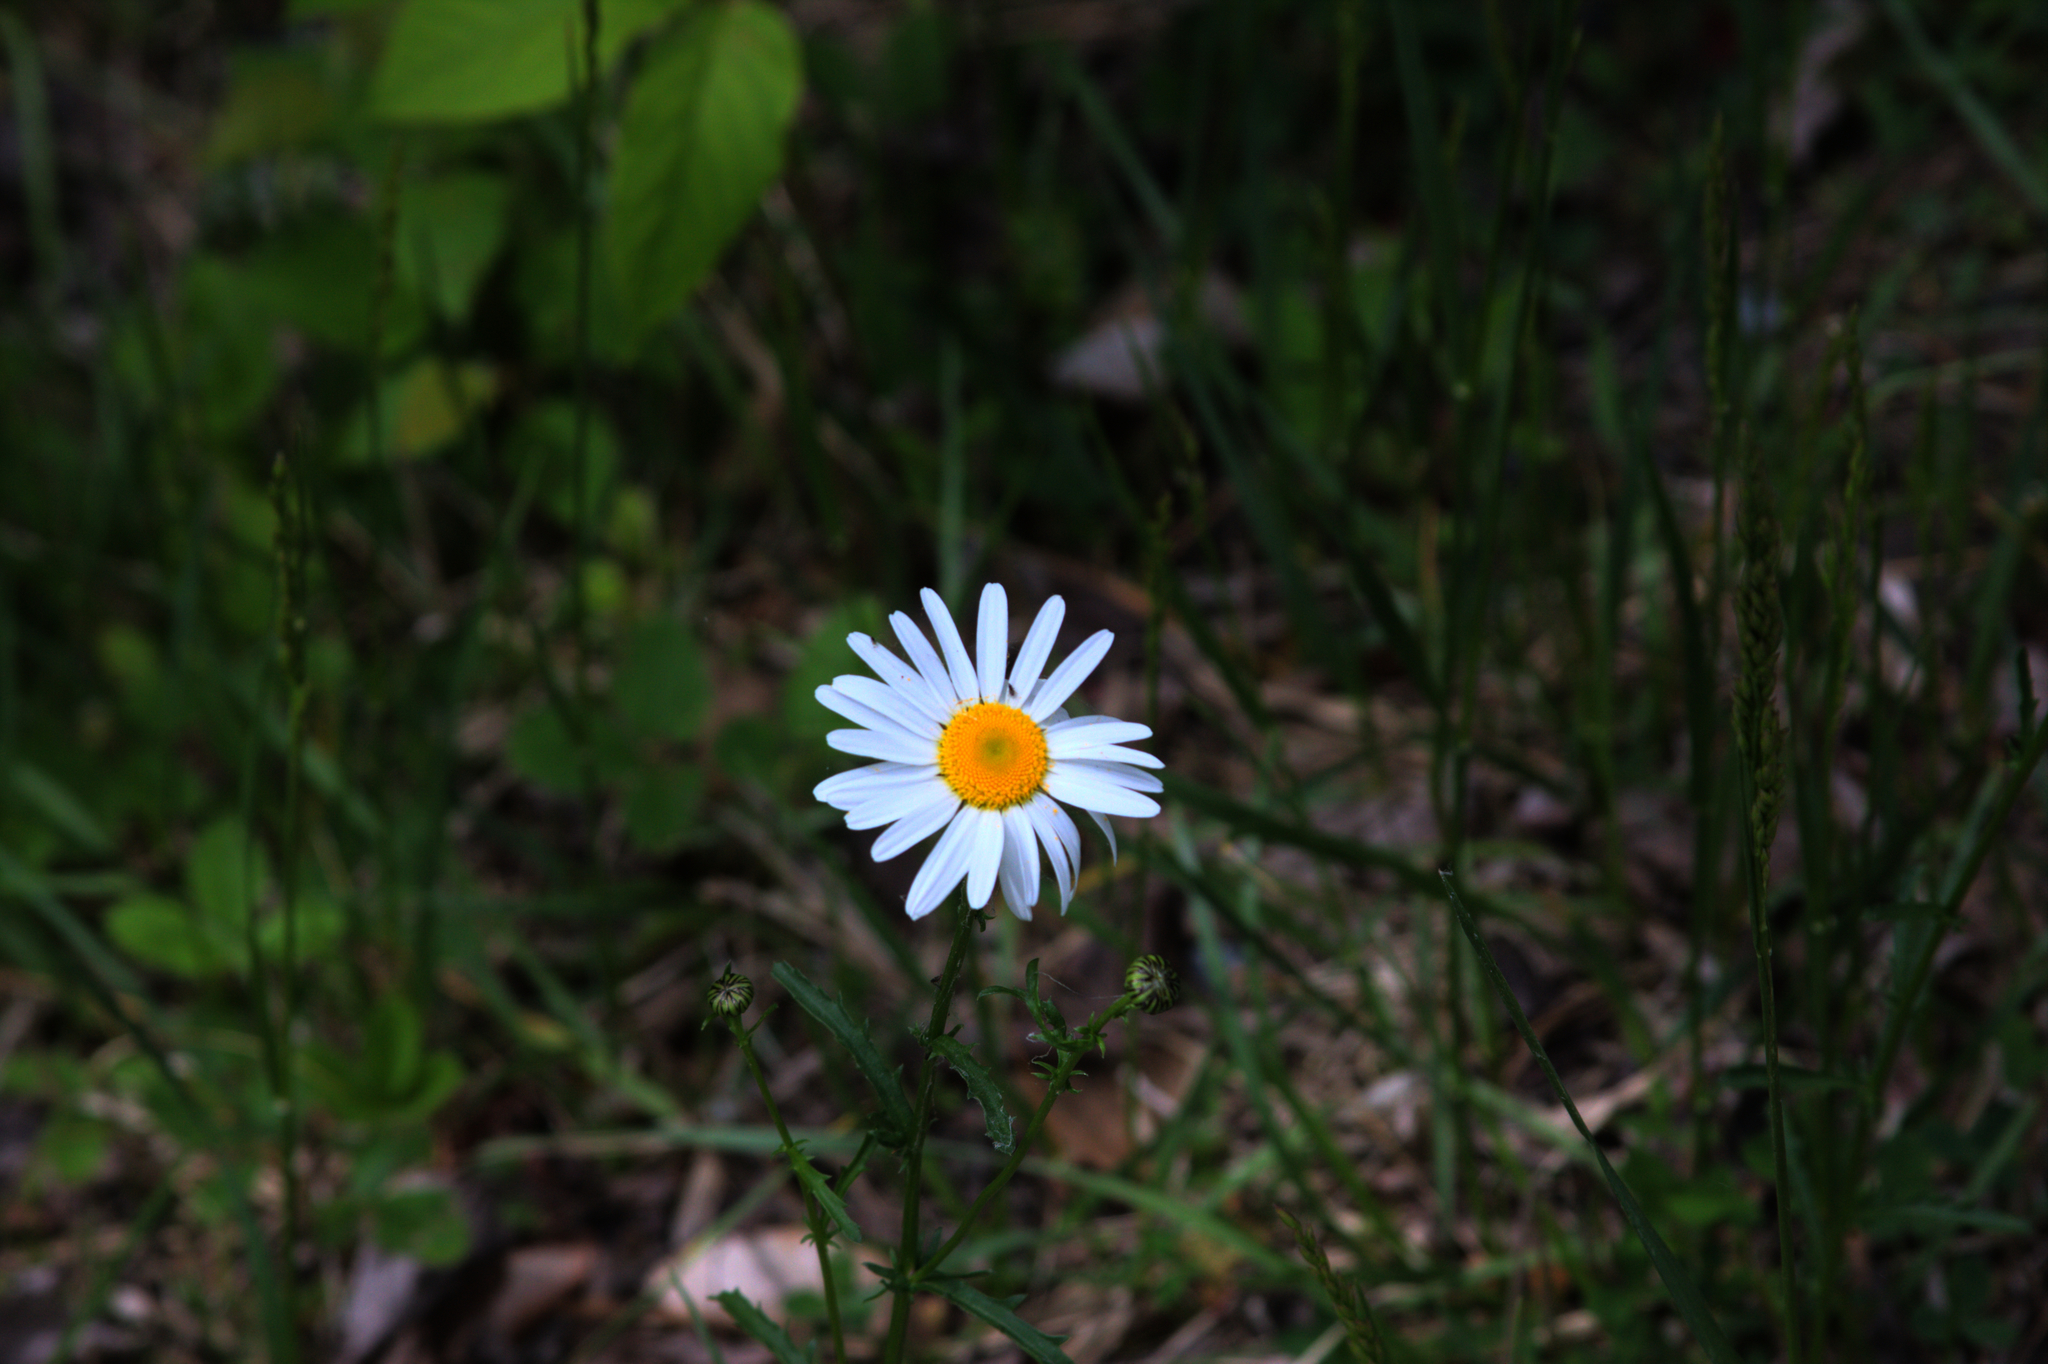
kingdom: Plantae
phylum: Tracheophyta
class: Magnoliopsida
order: Asterales
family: Asteraceae
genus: Leucanthemum
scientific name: Leucanthemum vulgare
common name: Oxeye daisy
